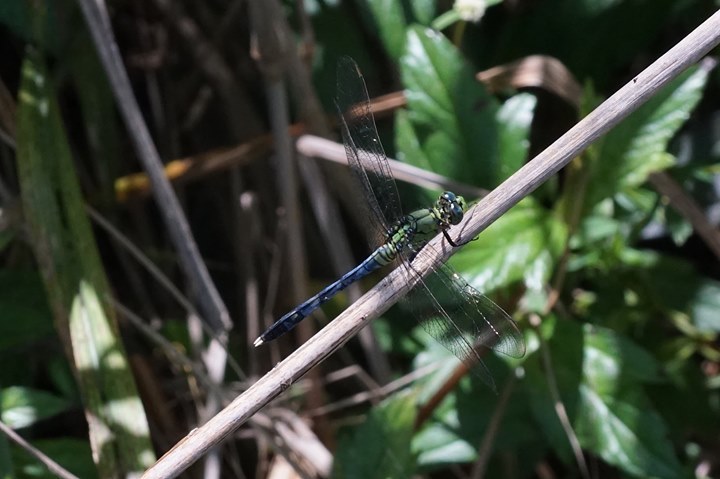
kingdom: Animalia
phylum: Arthropoda
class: Insecta
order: Odonata
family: Libellulidae
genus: Erythemis
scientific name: Erythemis simplicicollis
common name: Eastern pondhawk
